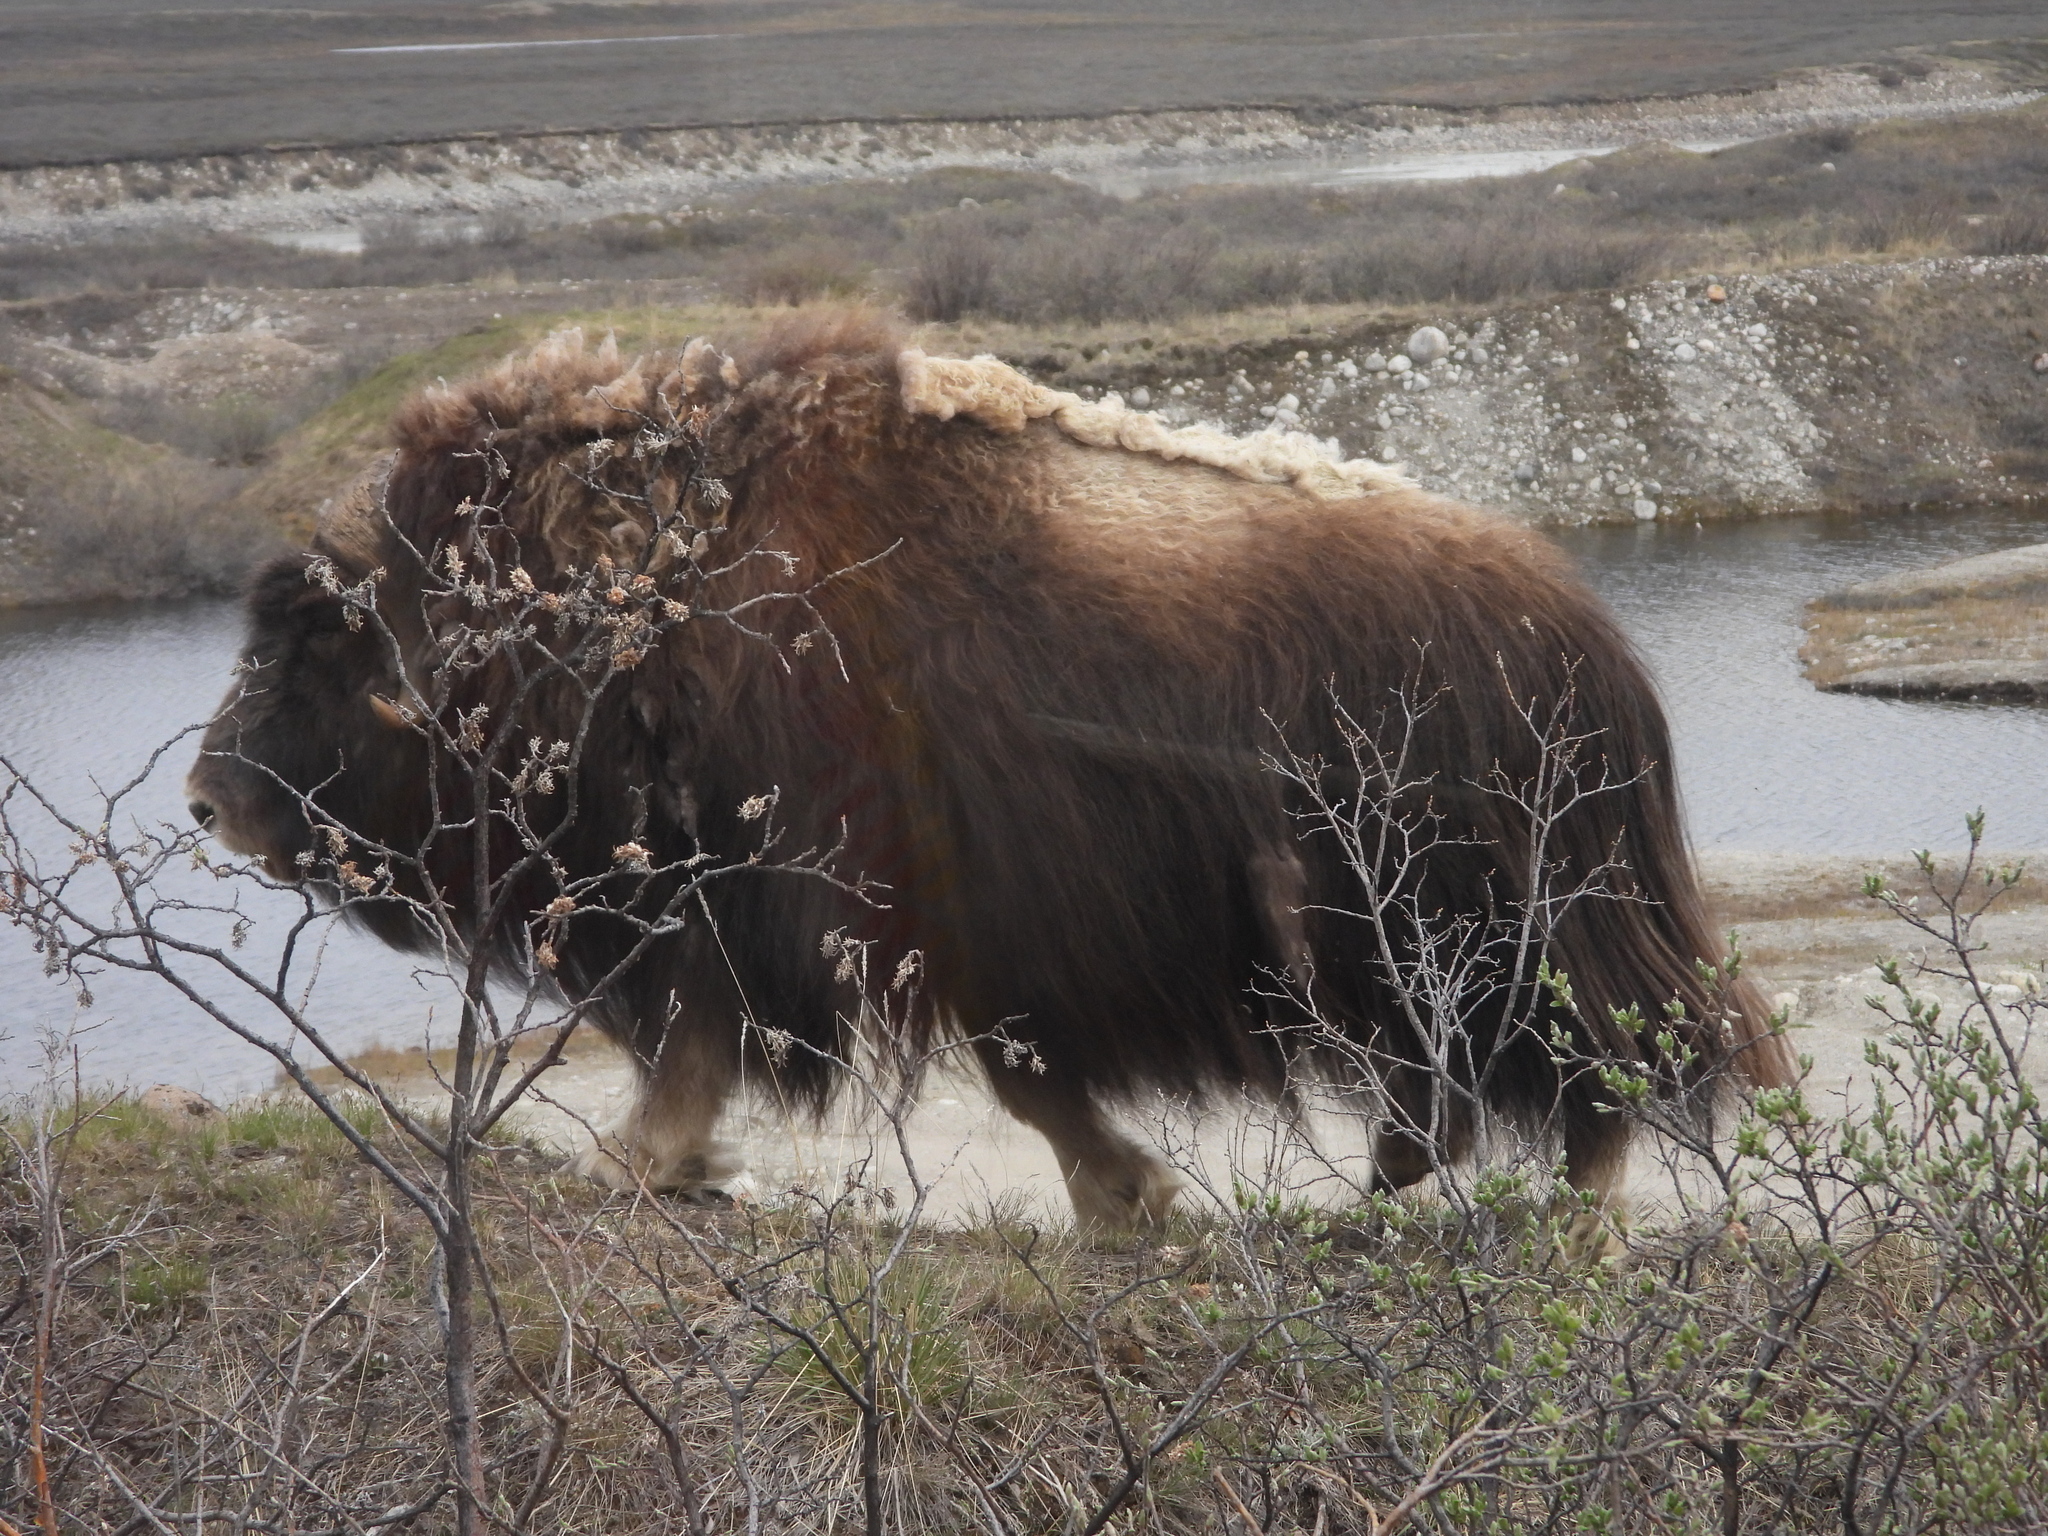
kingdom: Animalia
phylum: Chordata
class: Mammalia
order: Artiodactyla
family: Bovidae
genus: Ovibos
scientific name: Ovibos moschatus
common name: Muskox
